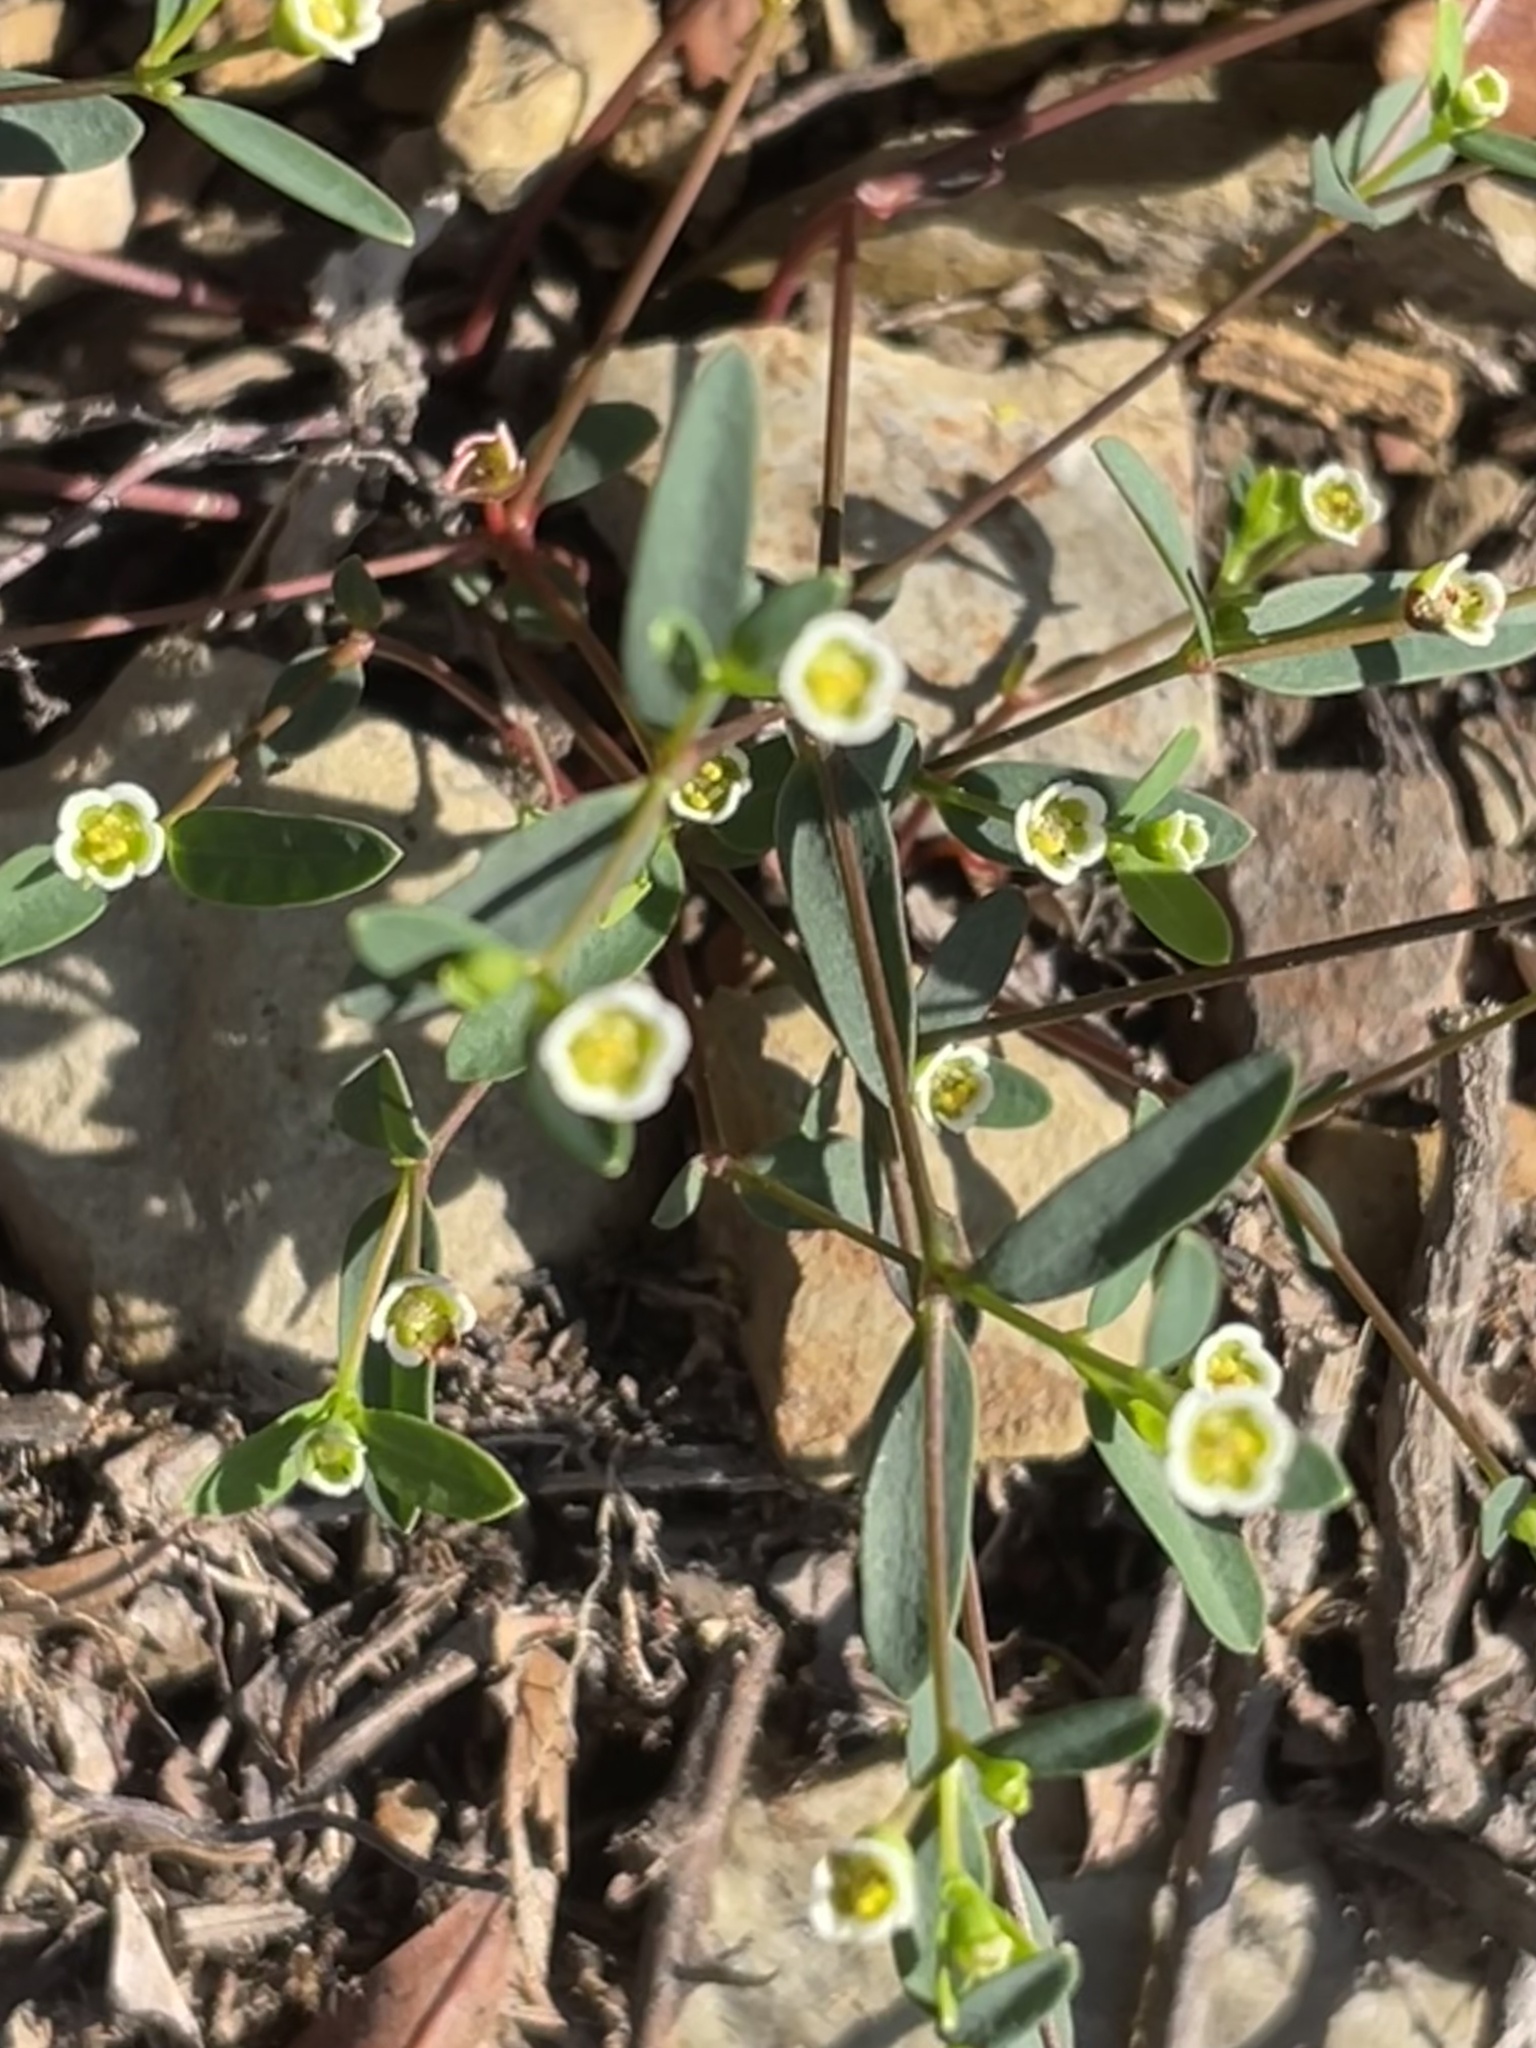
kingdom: Plantae
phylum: Tracheophyta
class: Magnoliopsida
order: Malpighiales
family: Euphorbiaceae
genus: Euphorbia
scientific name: Euphorbia curtisii
